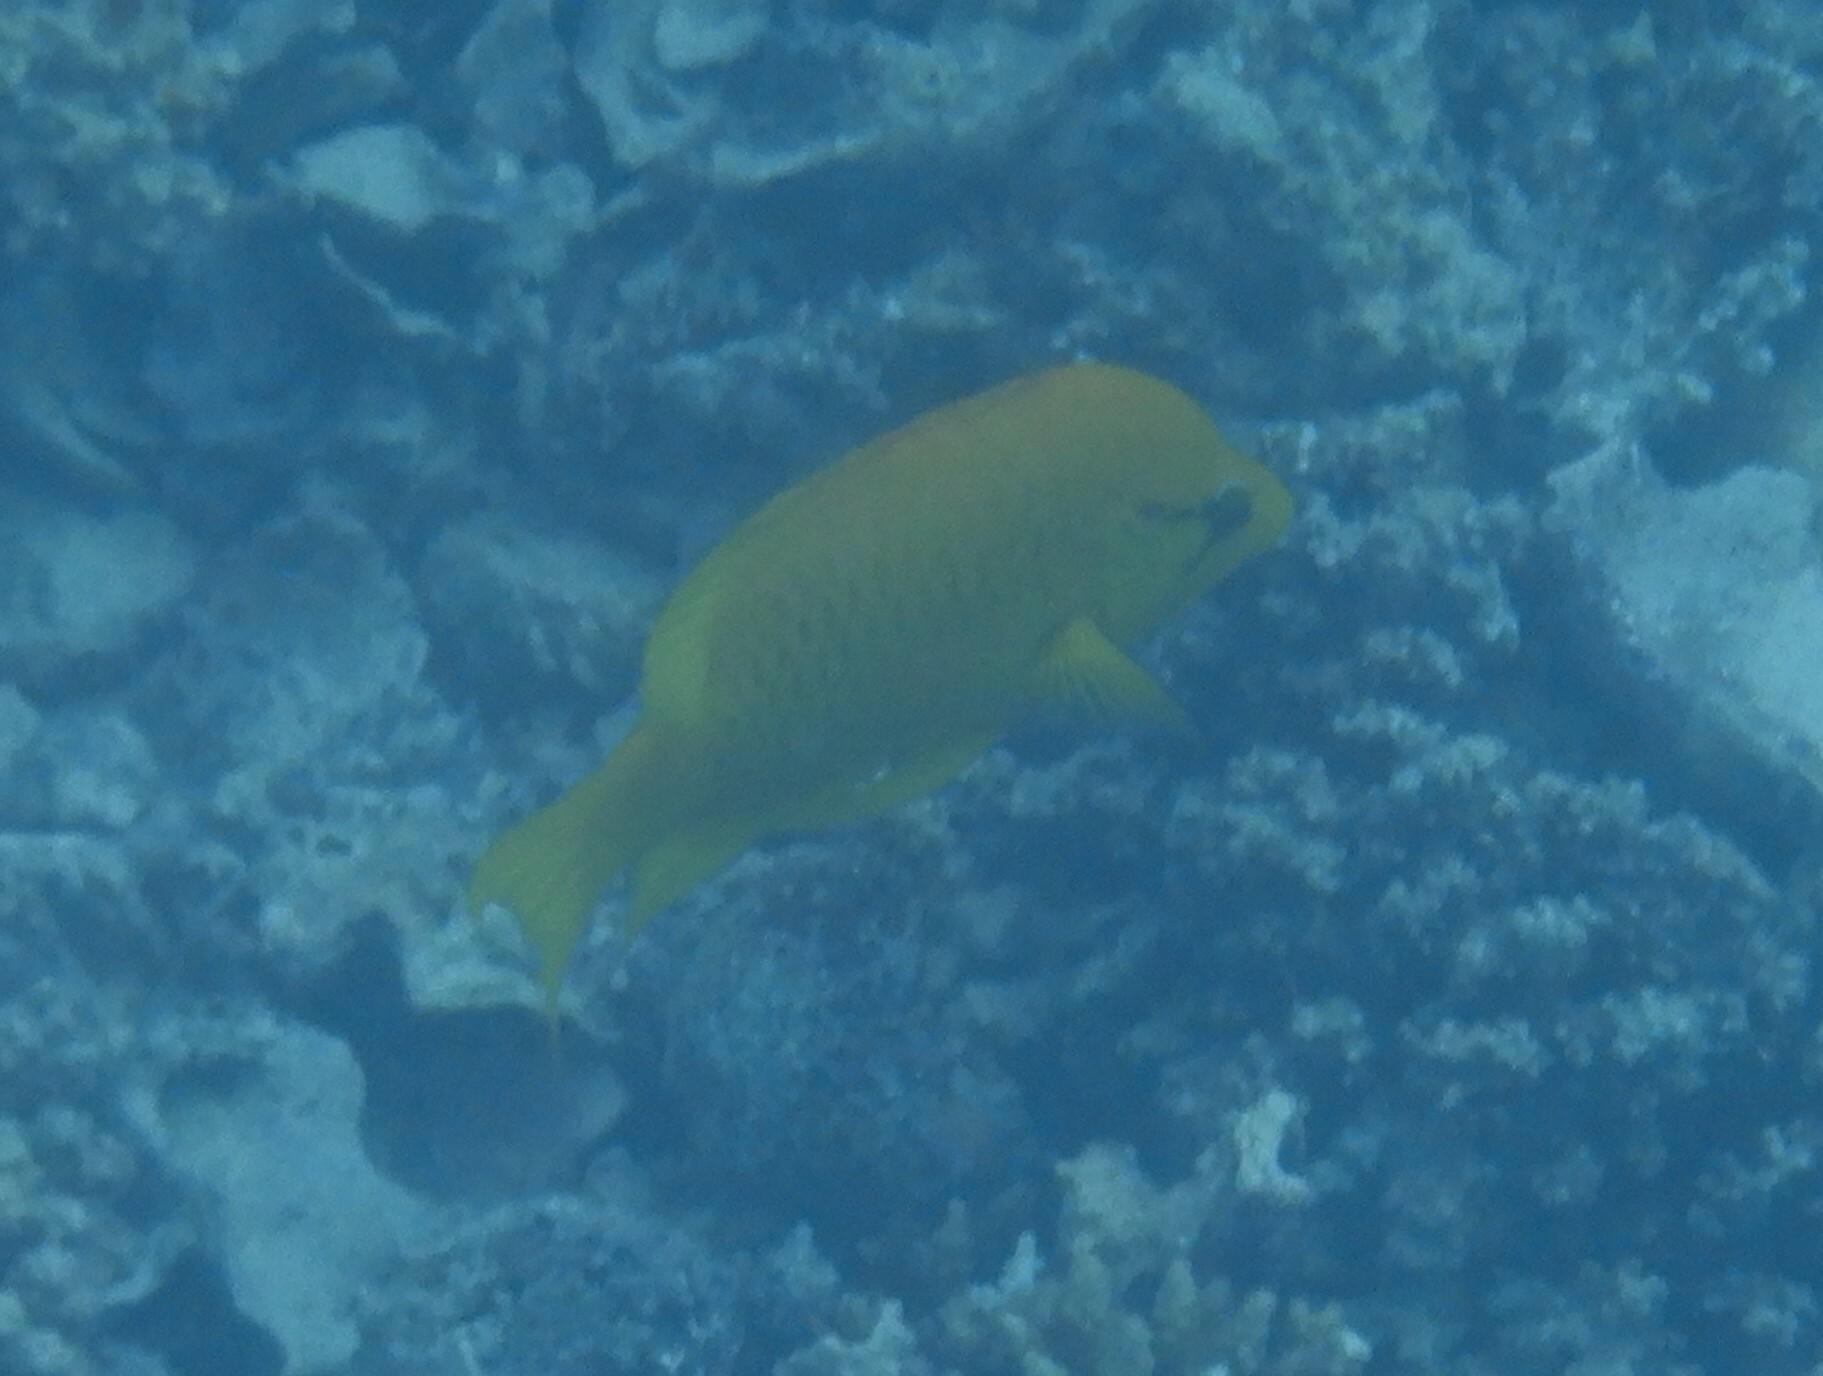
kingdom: Animalia
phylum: Chordata
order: Perciformes
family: Labridae
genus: Epibulus
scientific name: Epibulus insidiator
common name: Slingjaw wrasse
